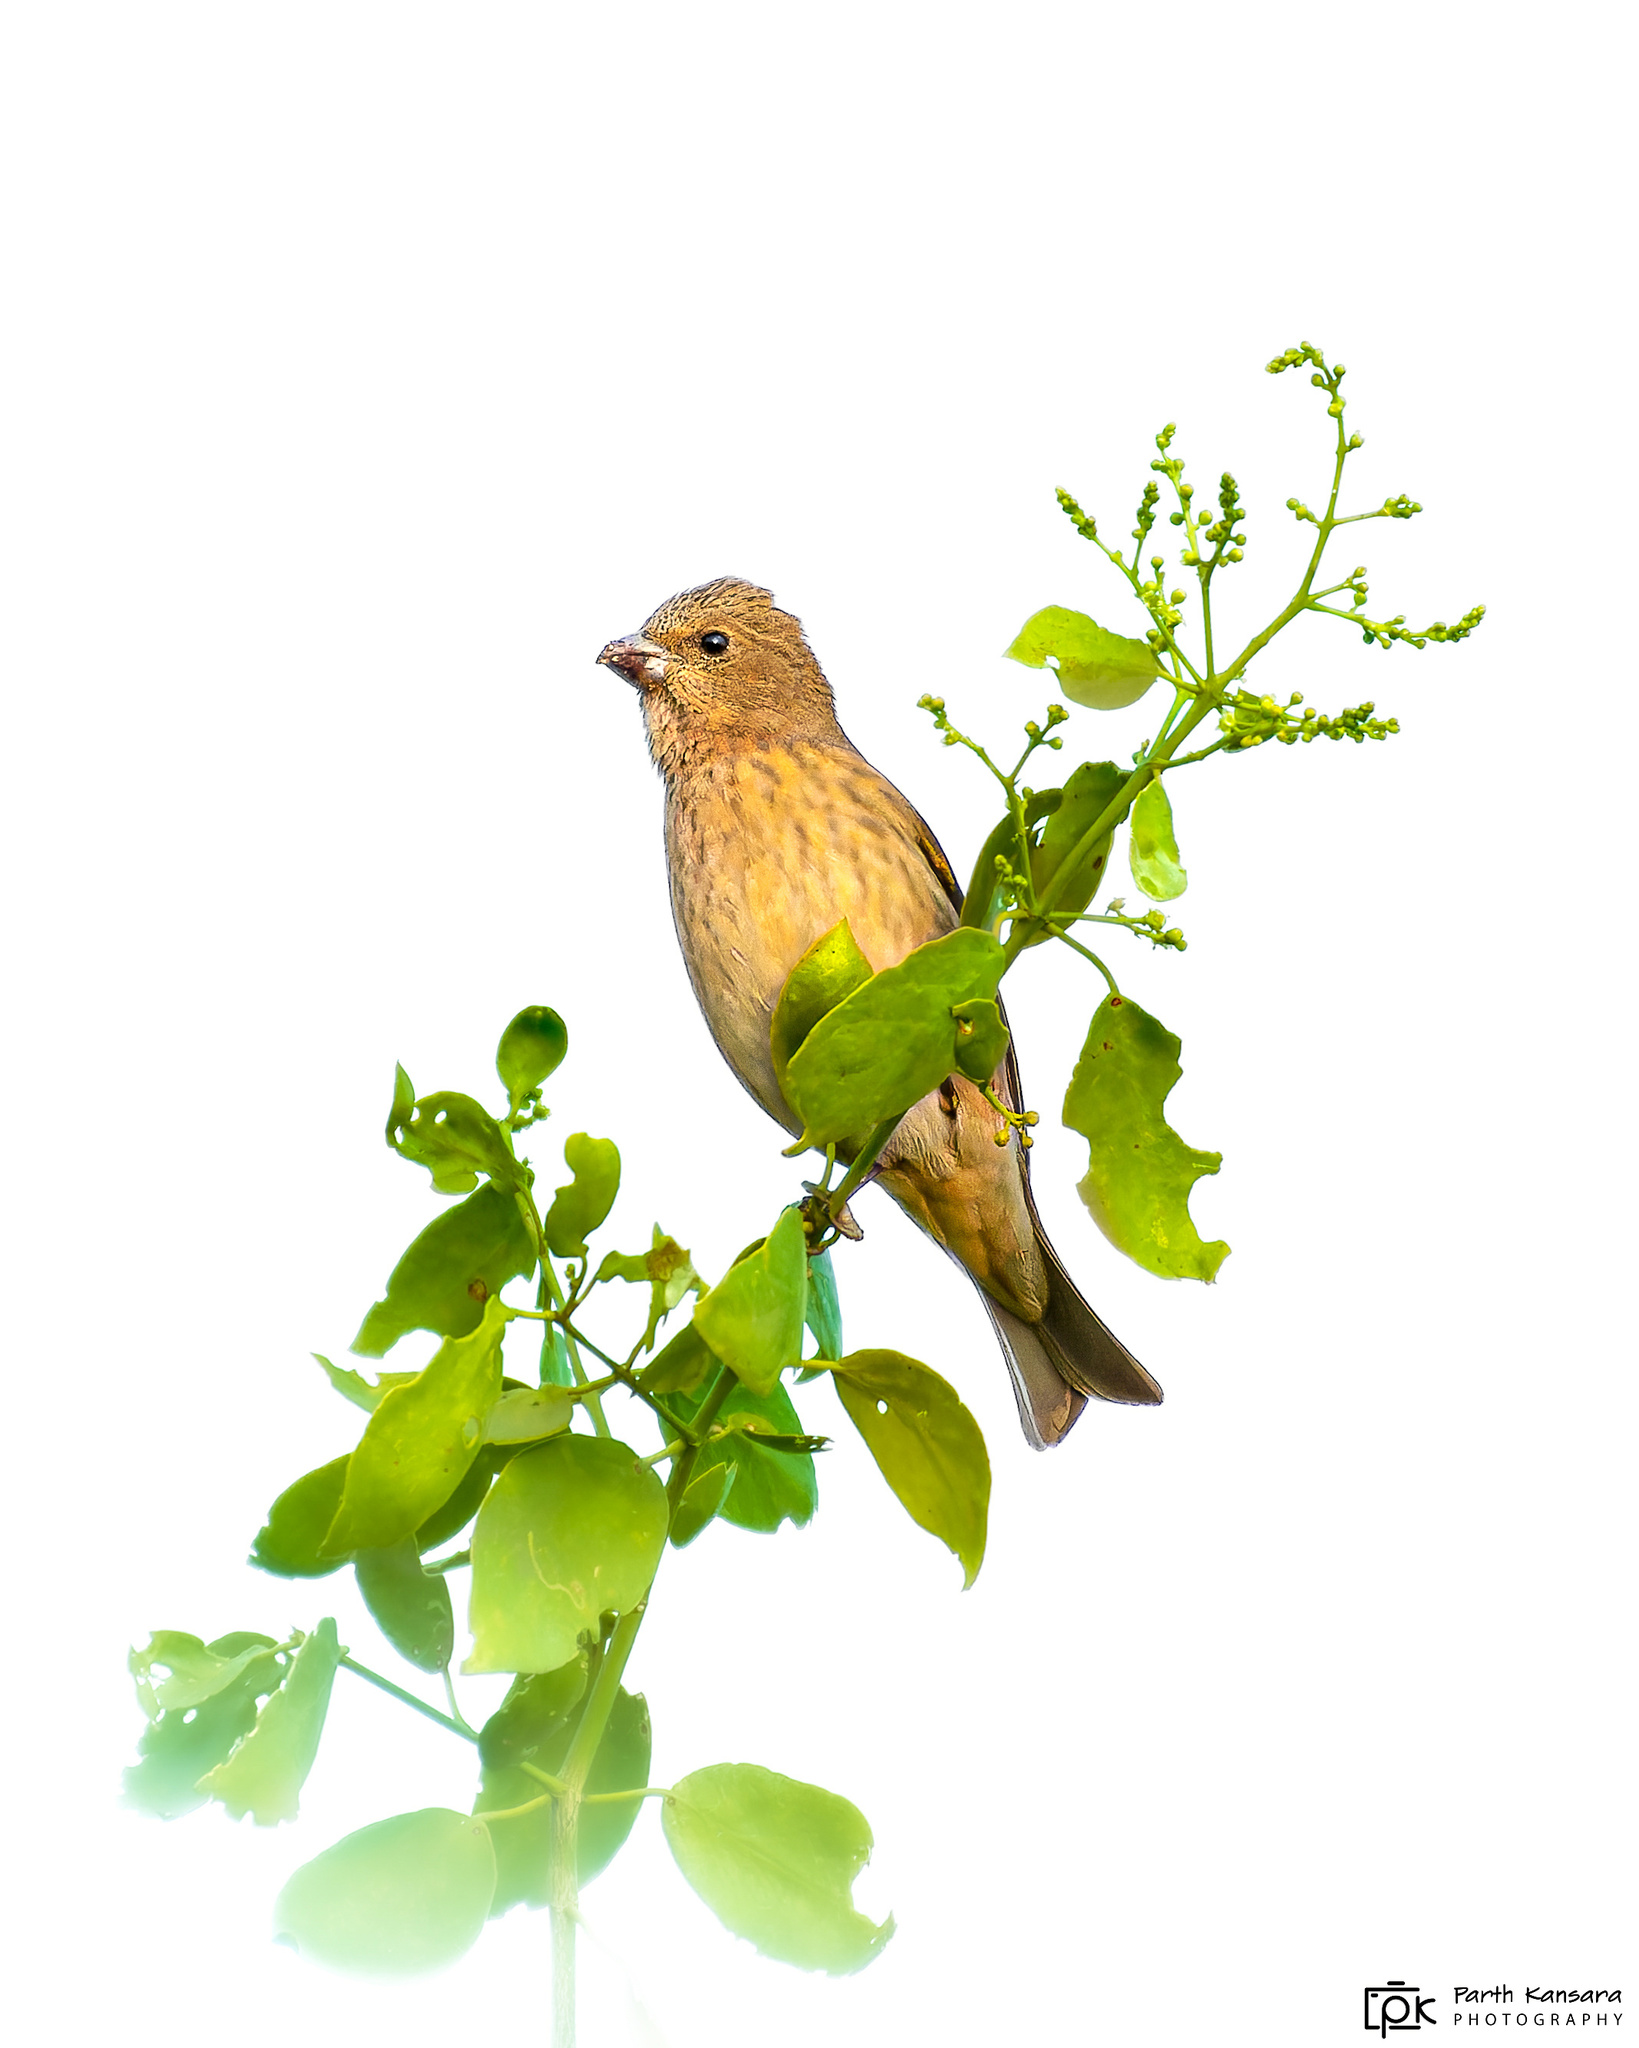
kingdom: Animalia
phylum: Chordata
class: Aves
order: Passeriformes
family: Fringillidae
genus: Carpodacus
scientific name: Carpodacus erythrinus
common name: Common rosefinch
